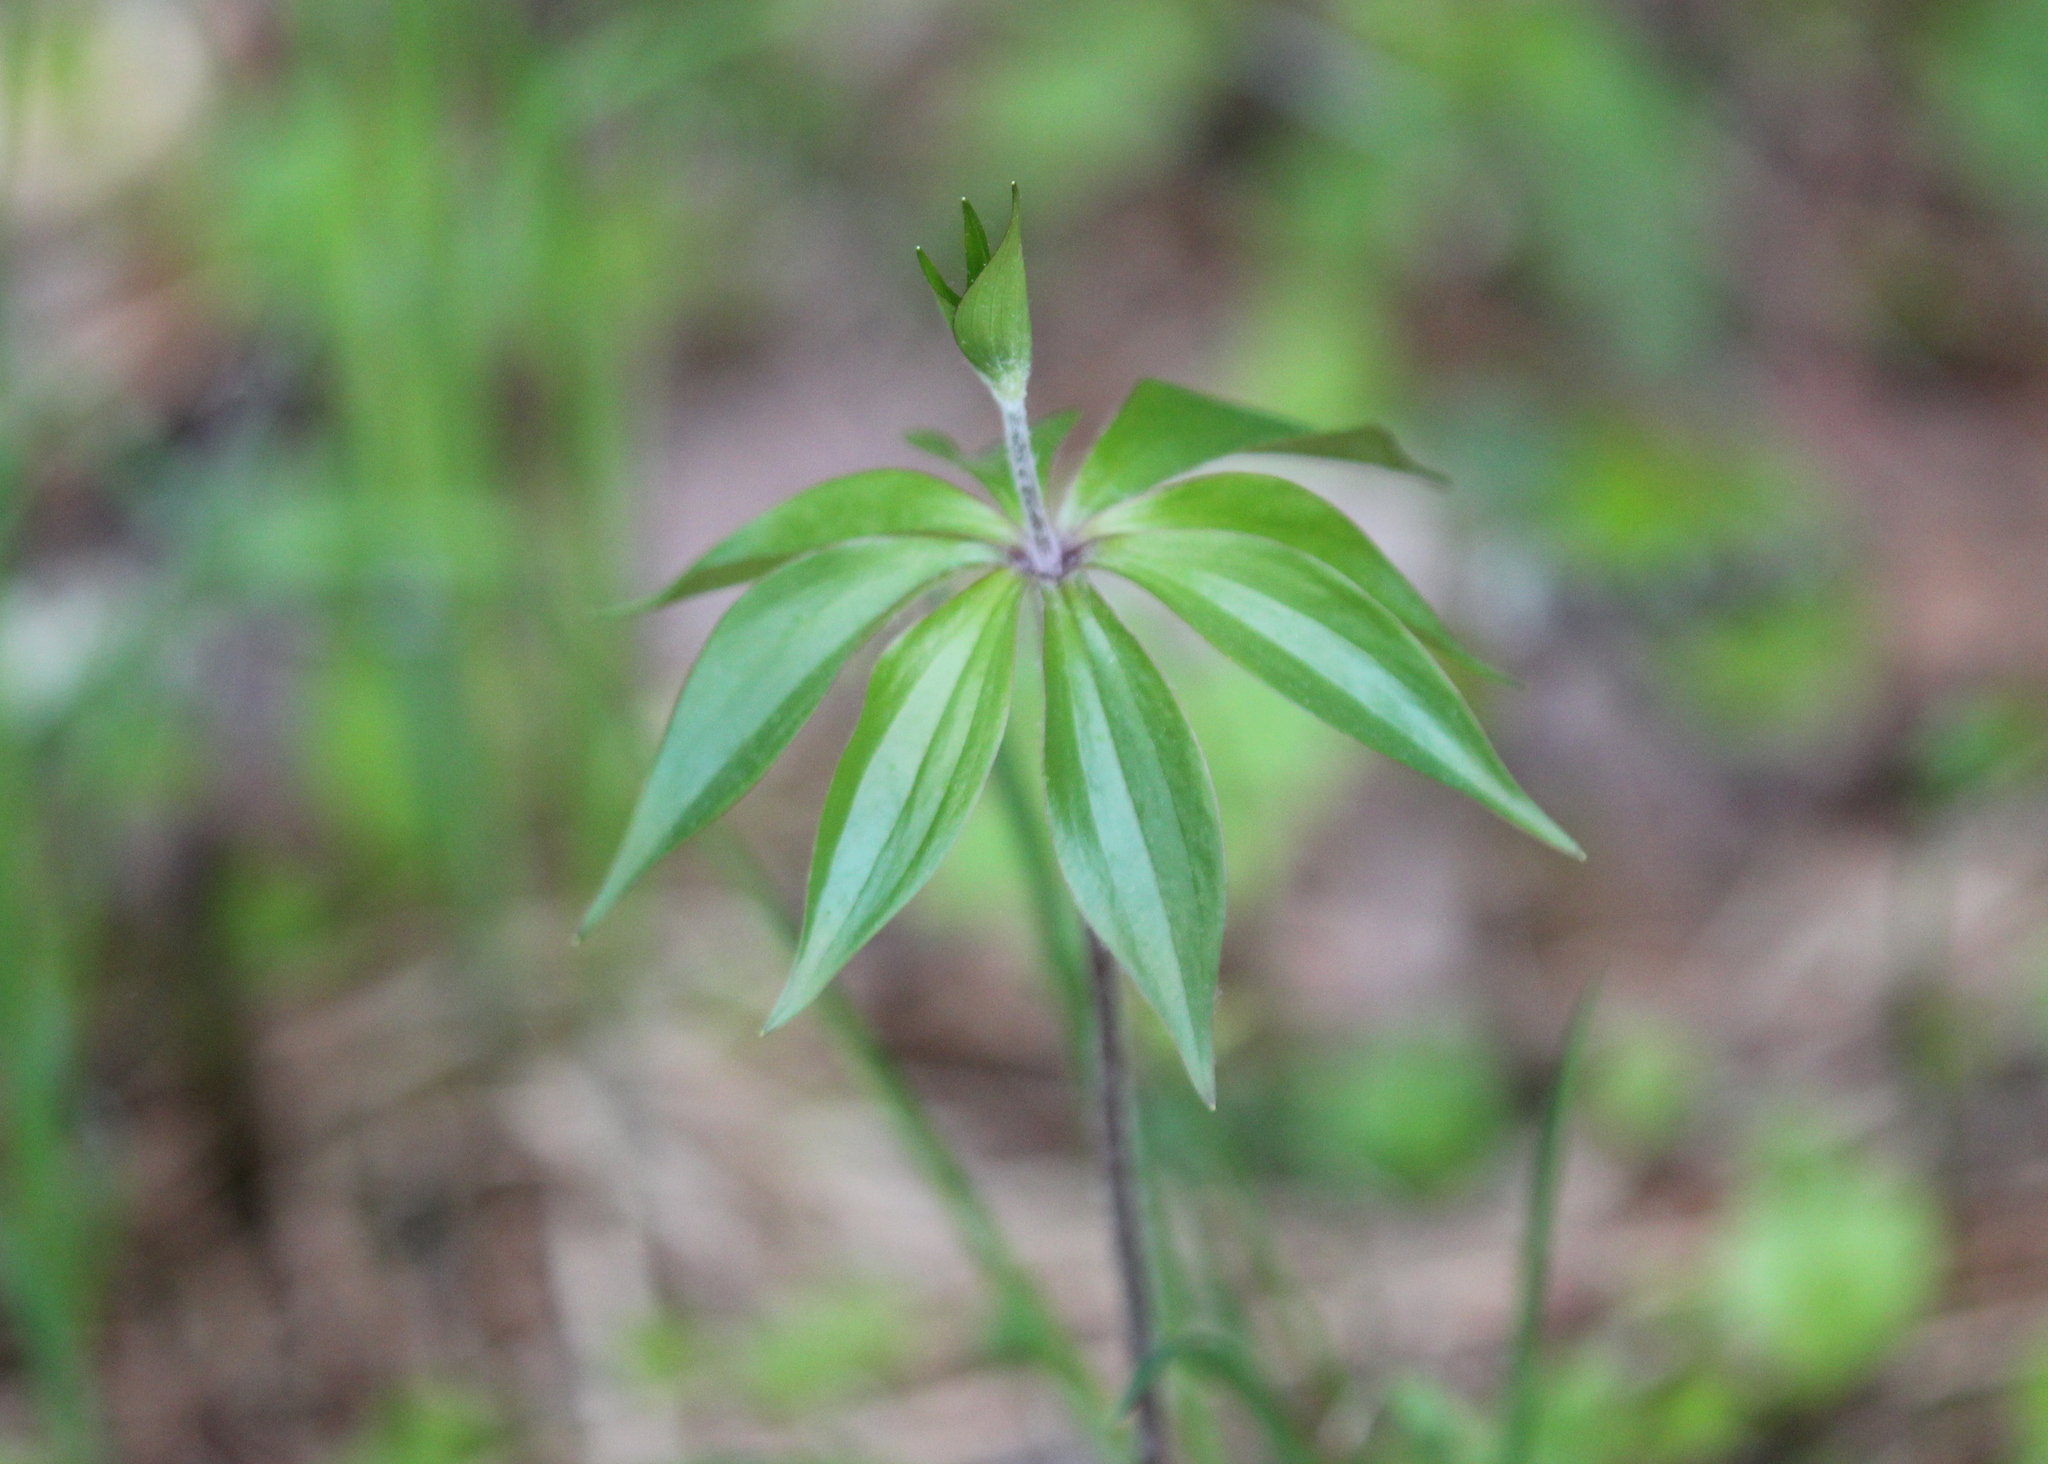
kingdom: Plantae
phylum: Tracheophyta
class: Liliopsida
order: Liliales
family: Liliaceae
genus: Medeola
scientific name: Medeola virginiana
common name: Indian cucumber-root
